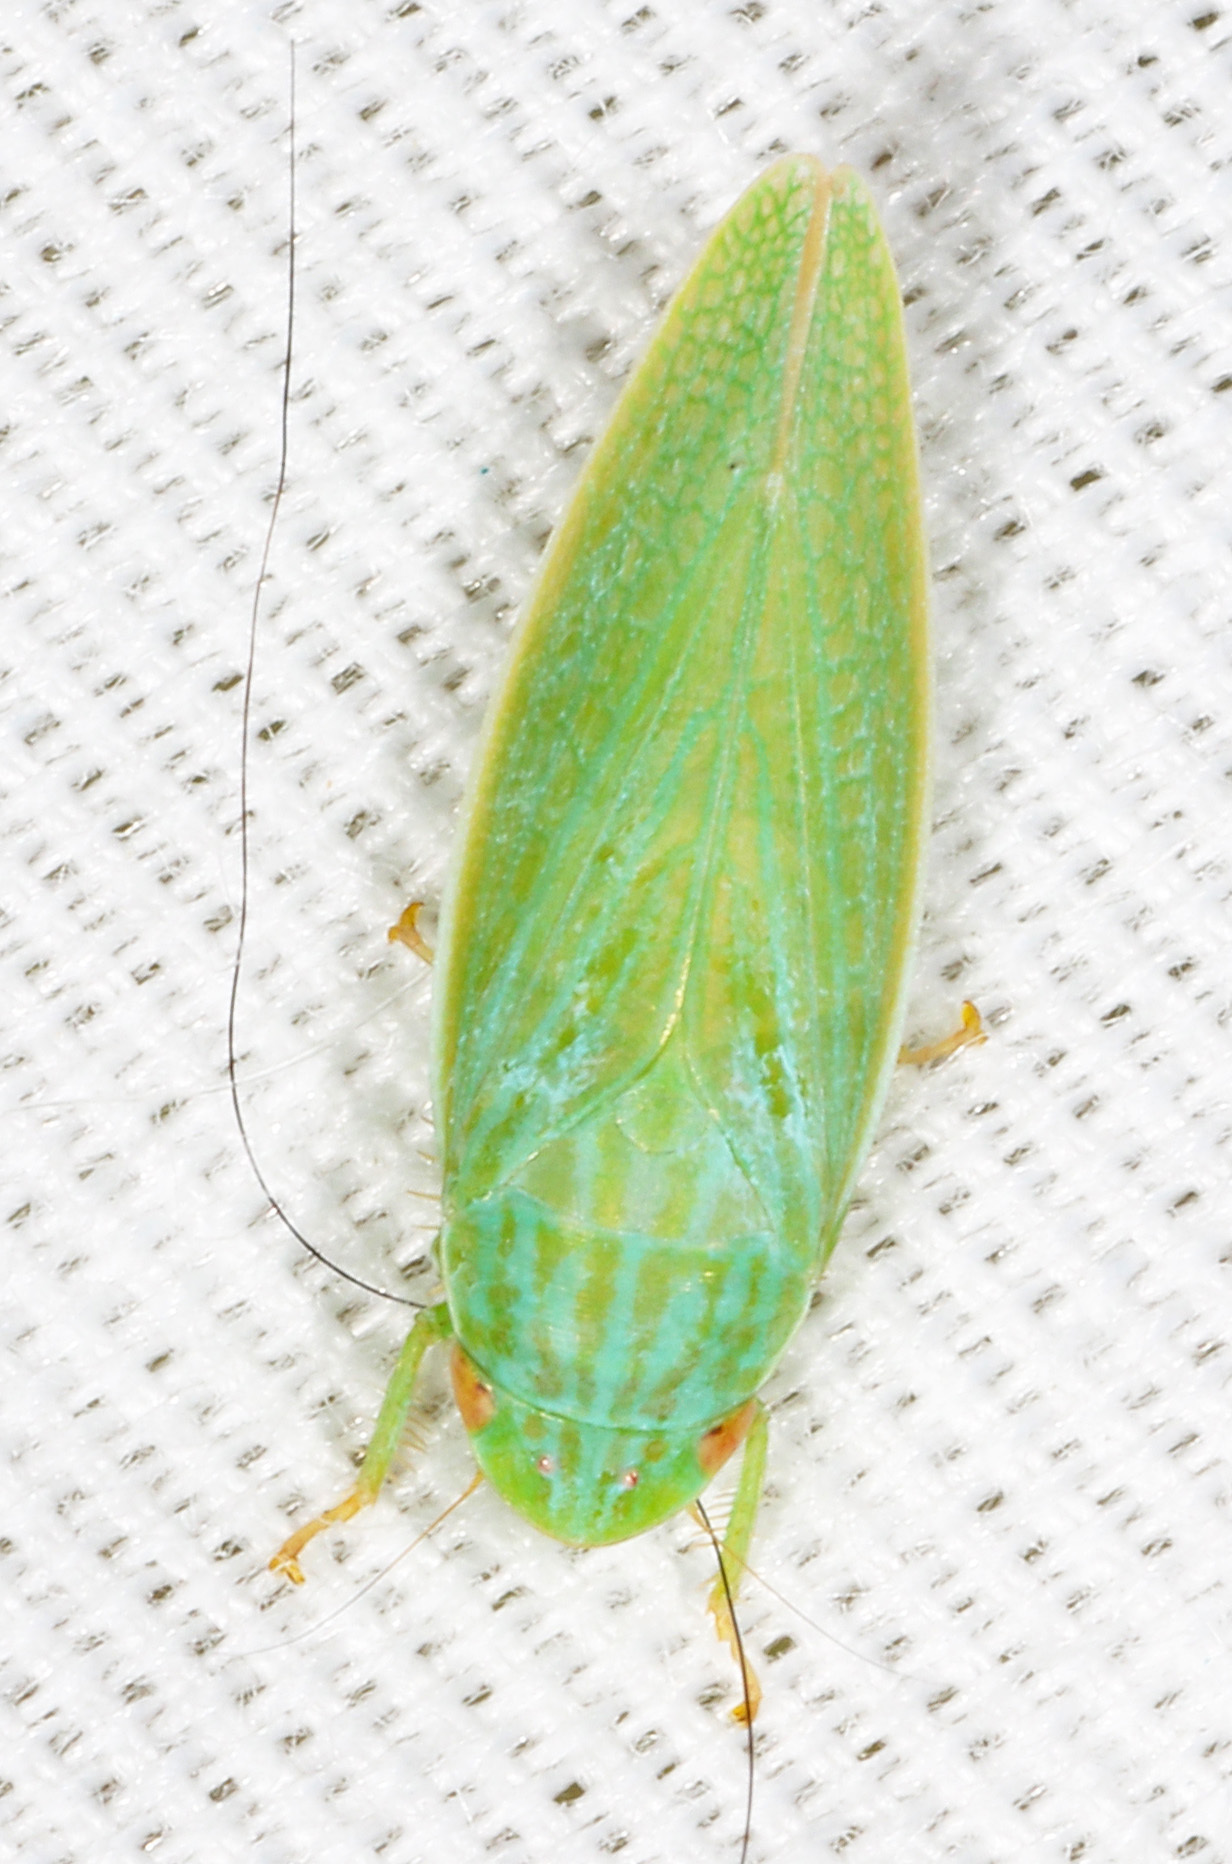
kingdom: Animalia
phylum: Arthropoda
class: Insecta
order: Hemiptera
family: Cicadellidae
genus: Gyponana
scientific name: Gyponana
